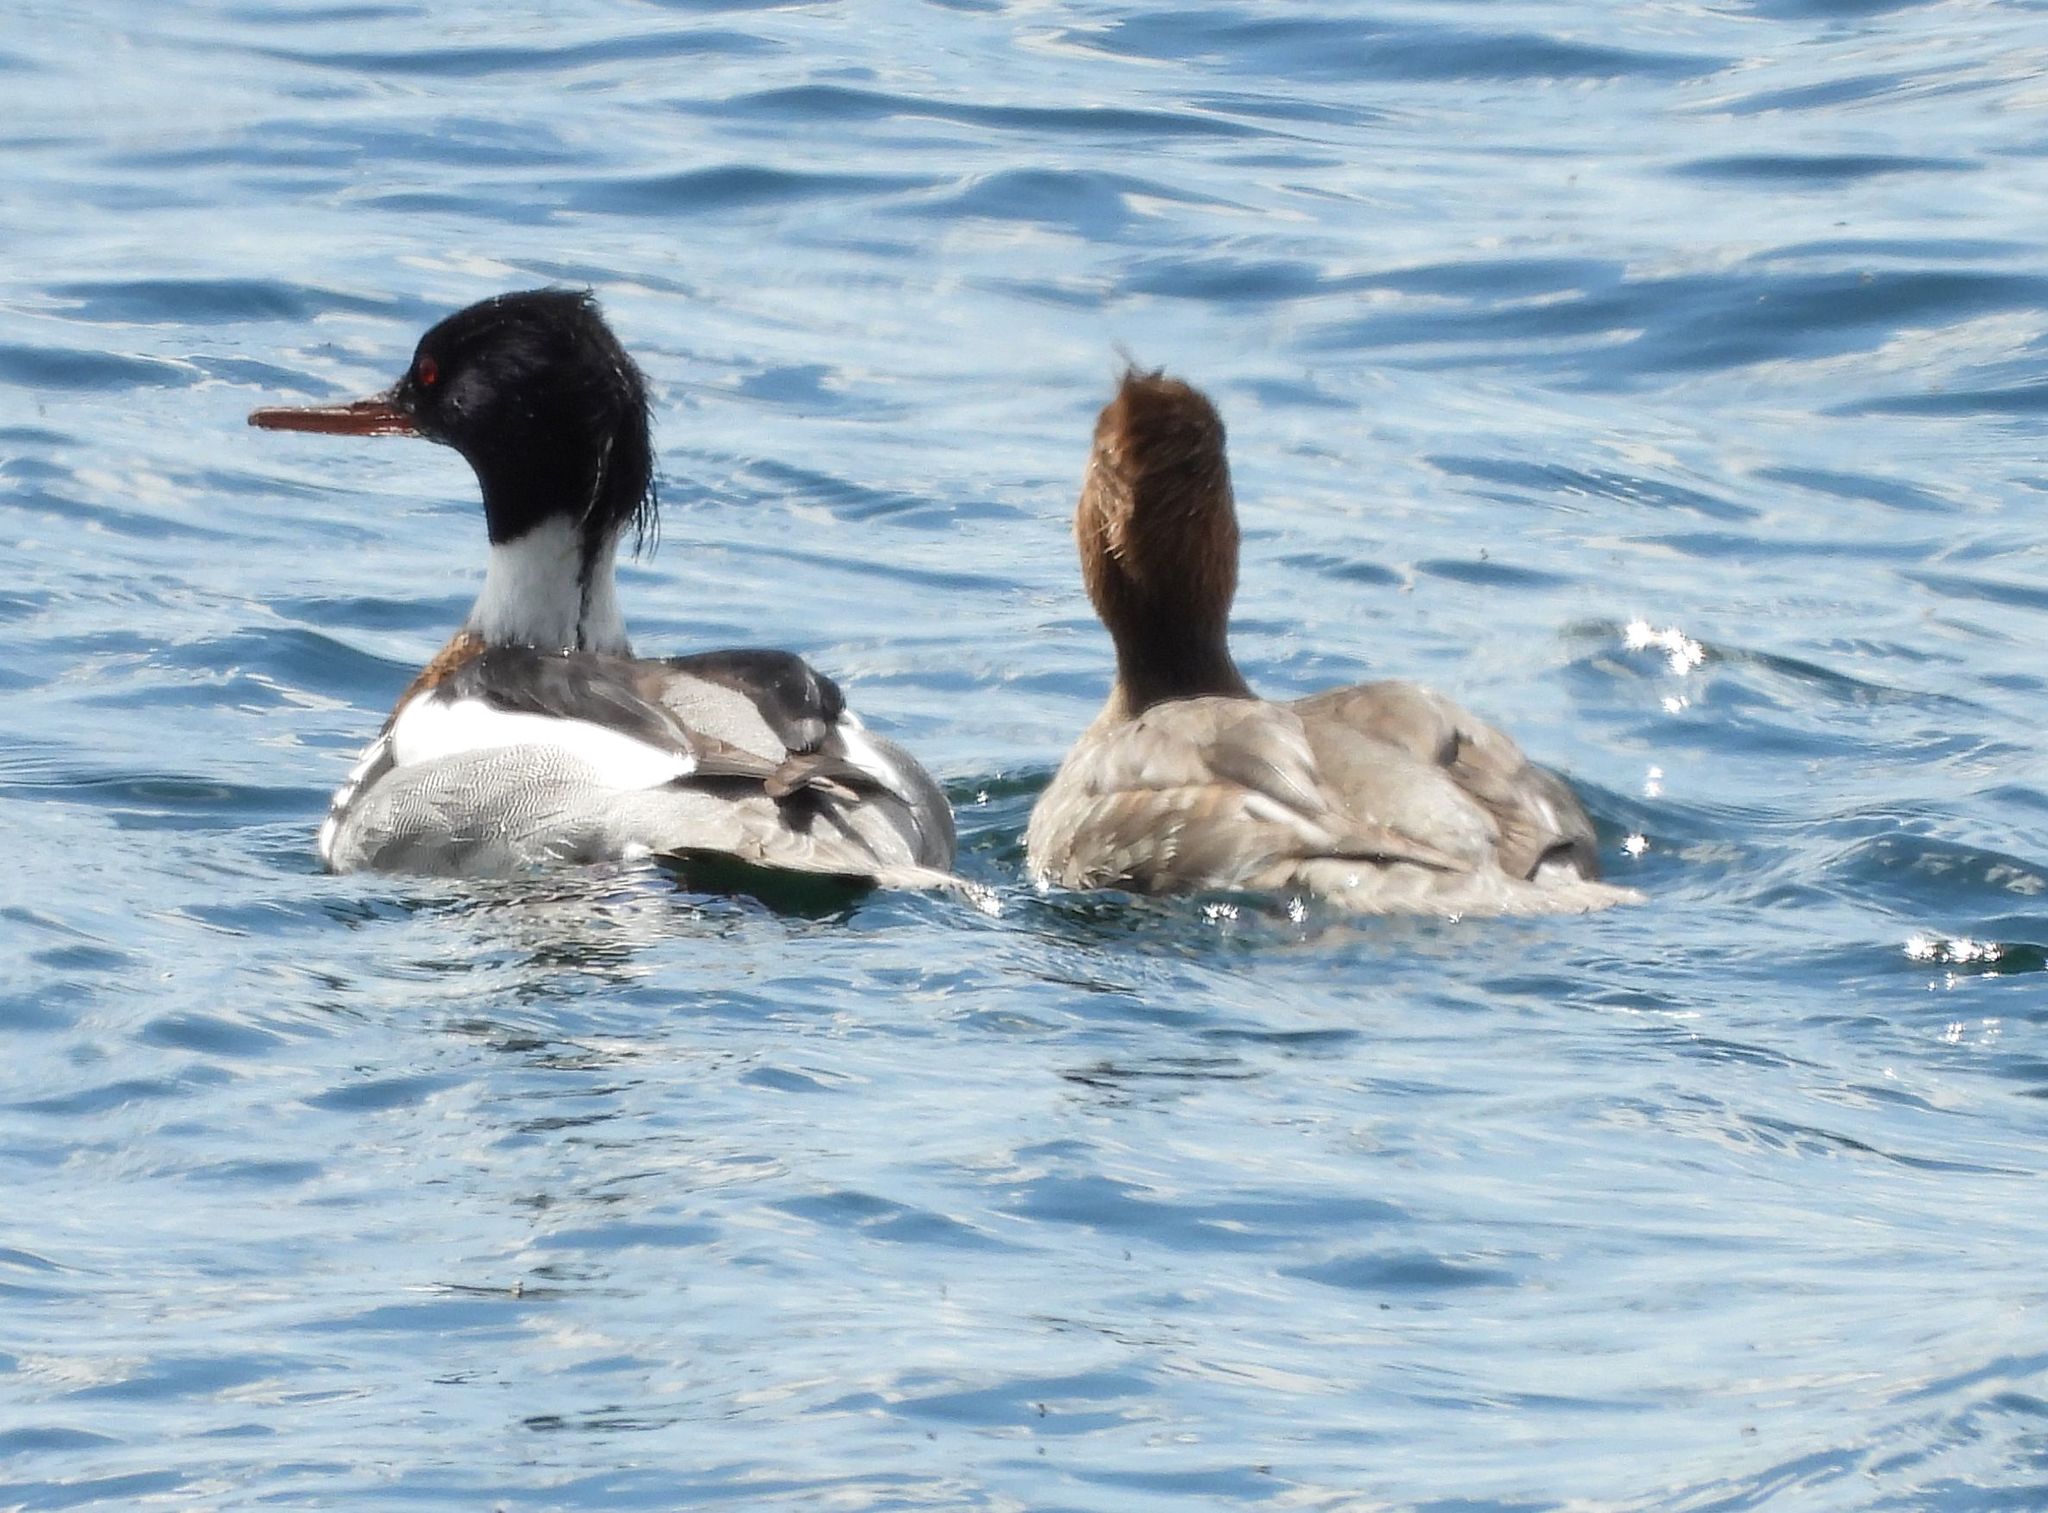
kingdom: Animalia
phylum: Chordata
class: Aves
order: Anseriformes
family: Anatidae
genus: Mergus
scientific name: Mergus serrator
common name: Red-breasted merganser
